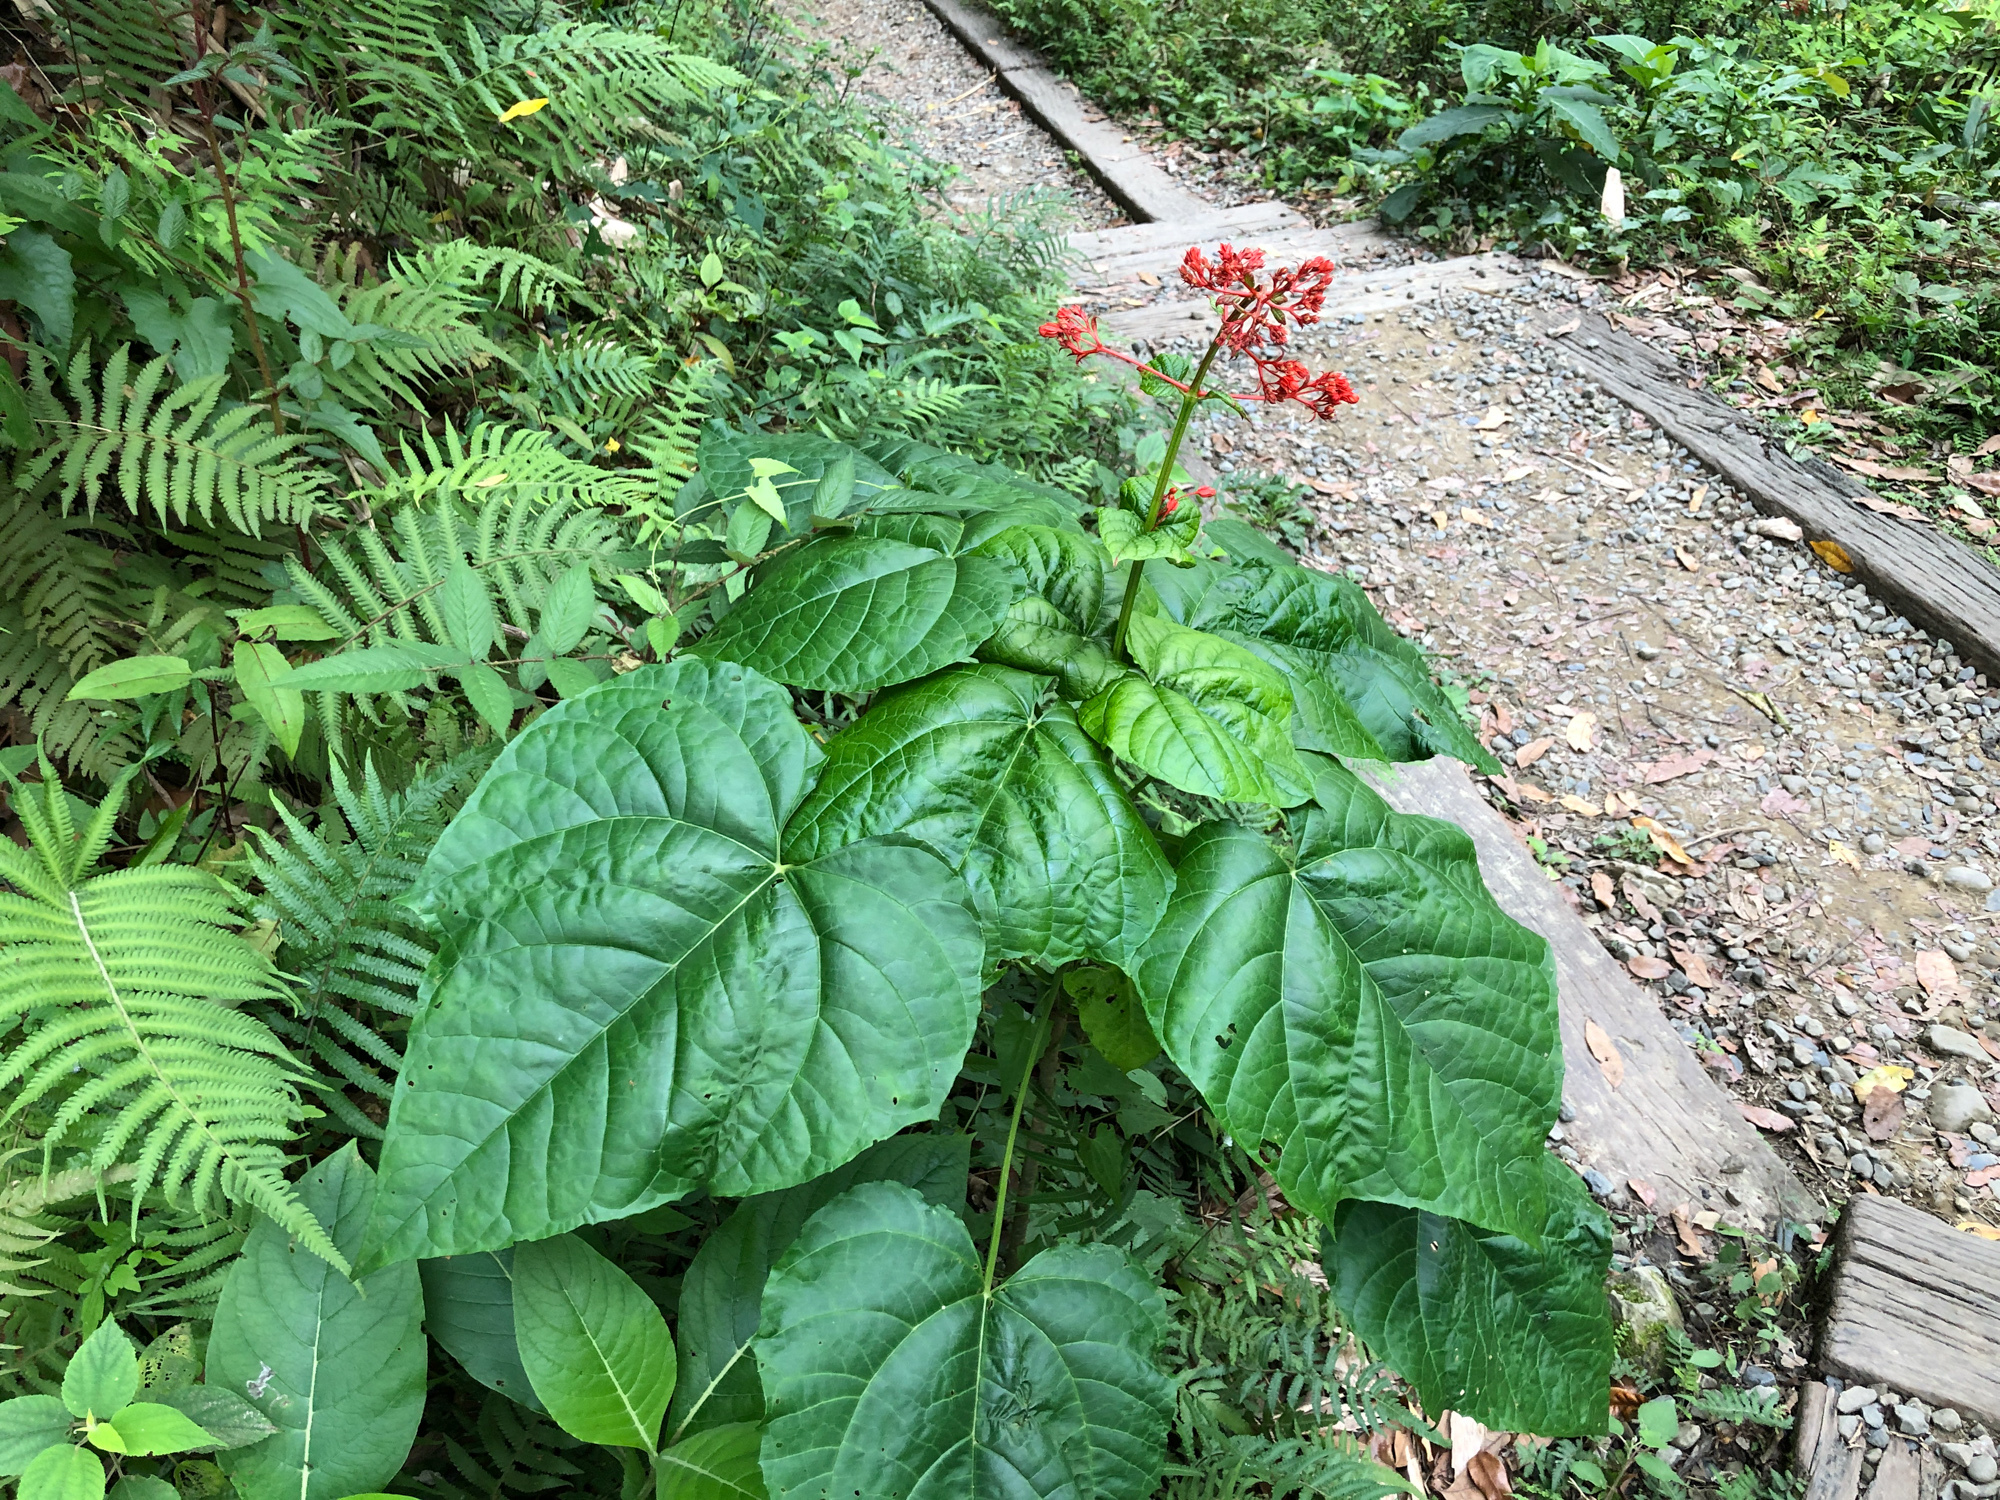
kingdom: Plantae
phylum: Tracheophyta
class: Magnoliopsida
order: Lamiales
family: Lamiaceae
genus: Clerodendrum
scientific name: Clerodendrum japonicum
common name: Japanese glorybower
